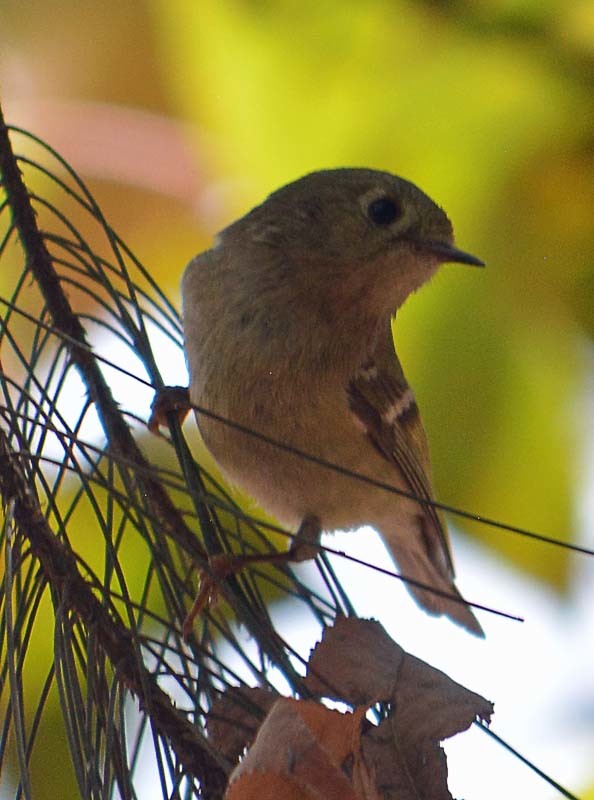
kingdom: Animalia
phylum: Chordata
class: Aves
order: Passeriformes
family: Regulidae
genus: Regulus
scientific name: Regulus calendula
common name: Ruby-crowned kinglet
